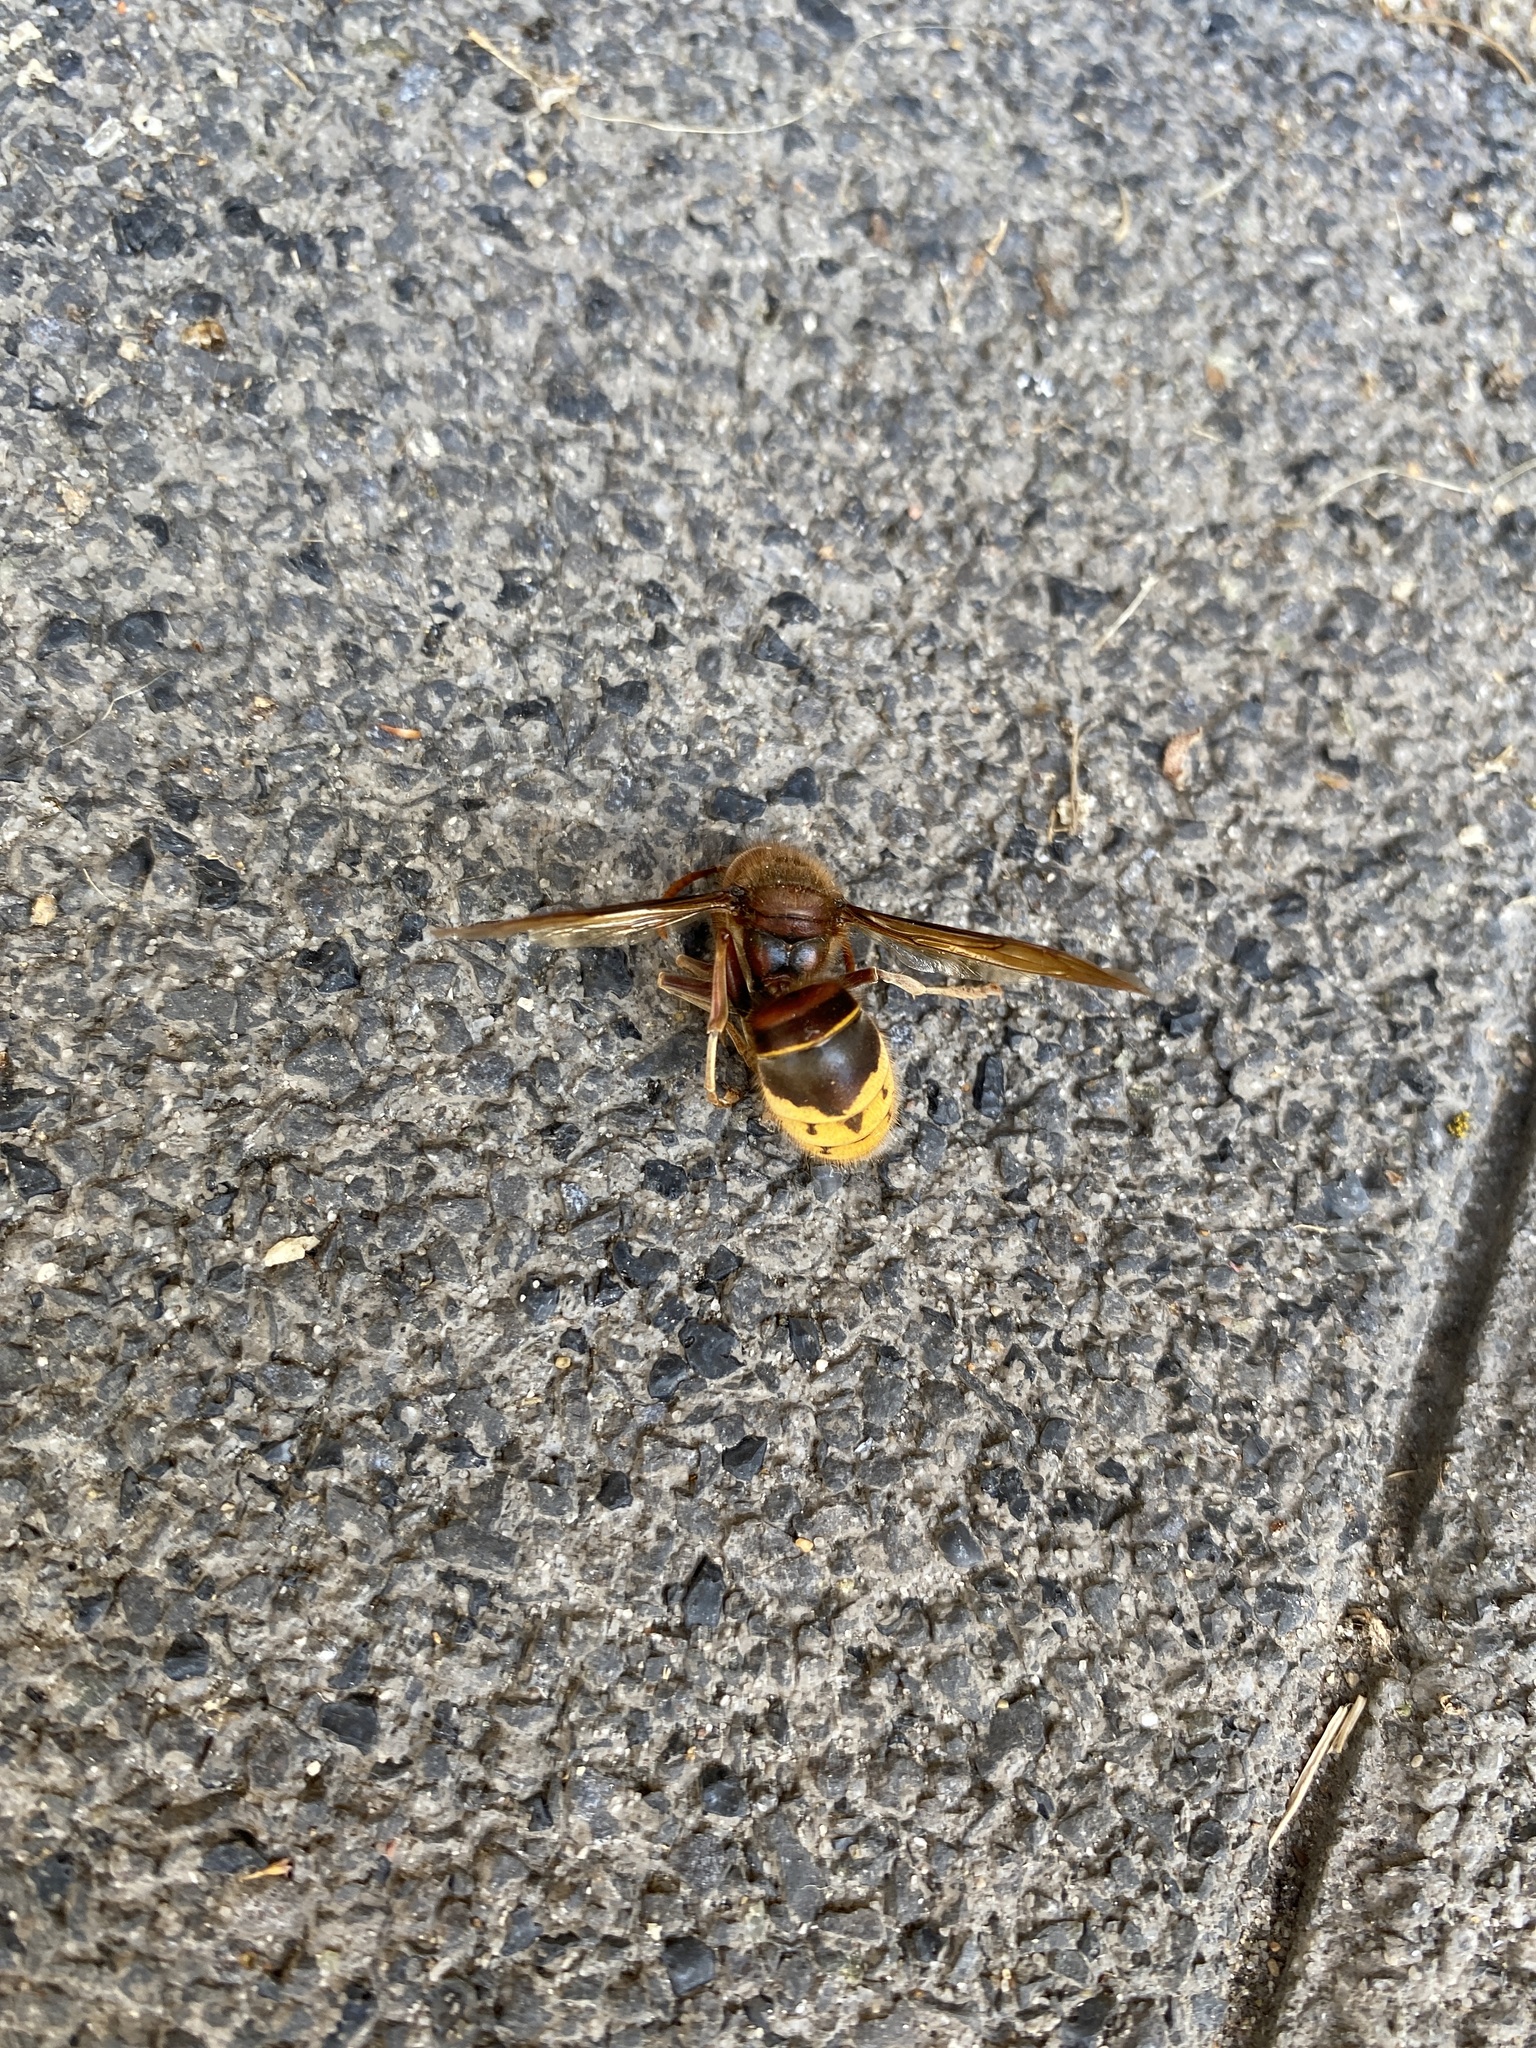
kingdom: Animalia
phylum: Arthropoda
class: Insecta
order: Hymenoptera
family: Vespidae
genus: Vespa
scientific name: Vespa crabro
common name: Hornet
